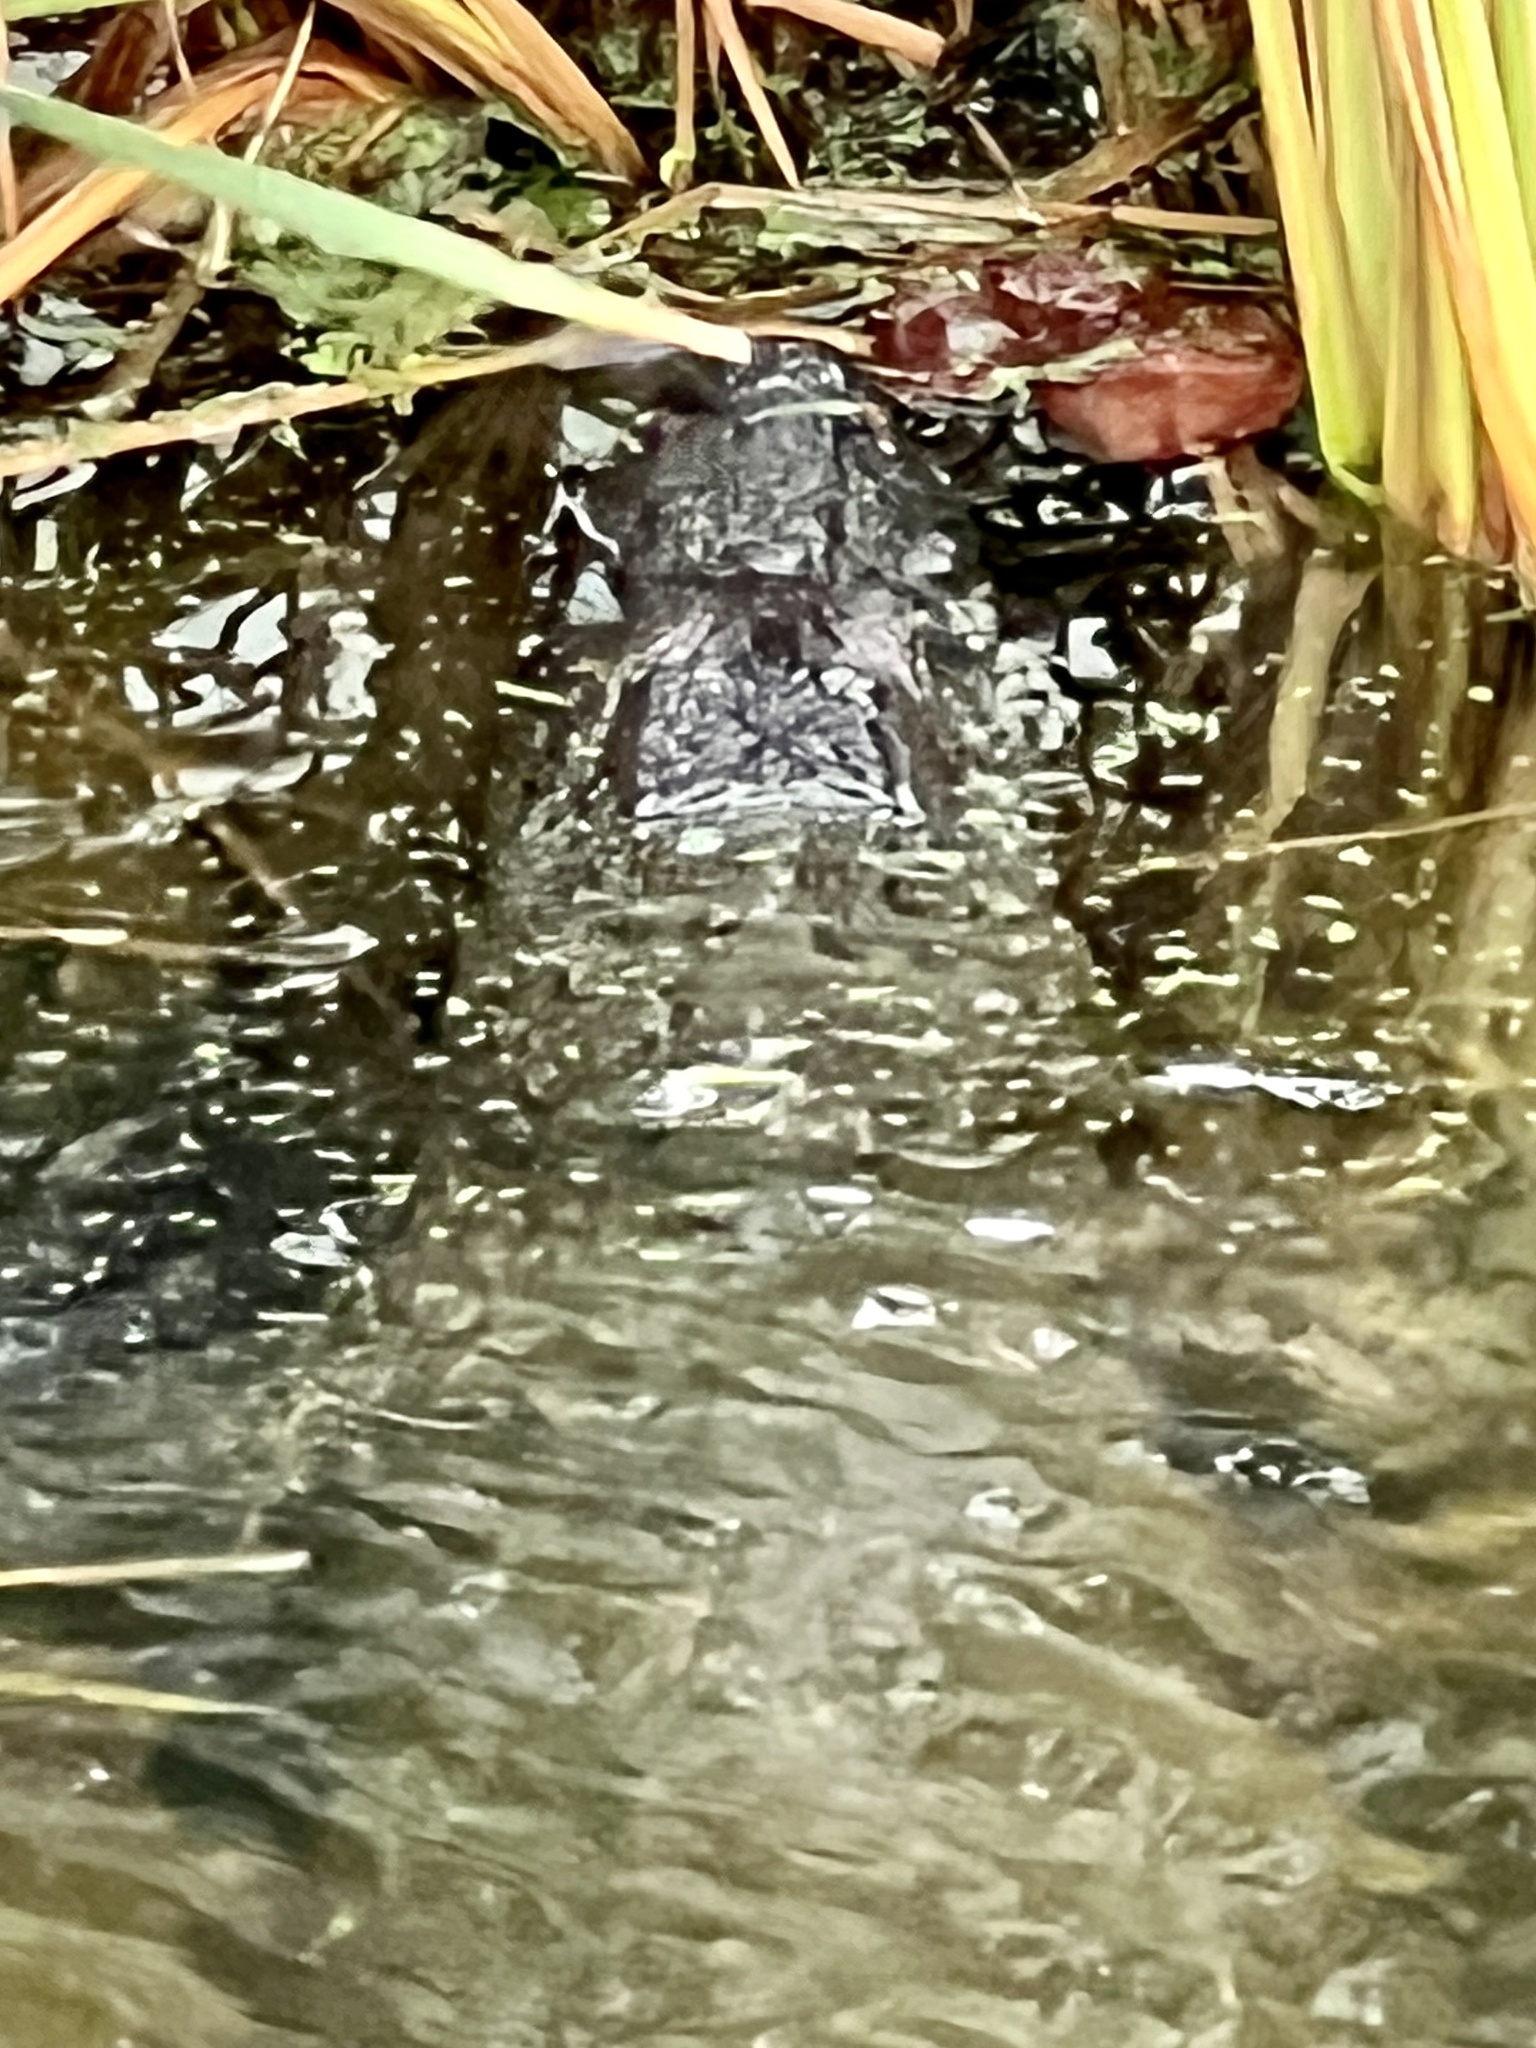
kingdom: Animalia
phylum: Chordata
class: Crocodylia
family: Alligatoridae
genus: Alligator
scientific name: Alligator mississippiensis
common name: American alligator
